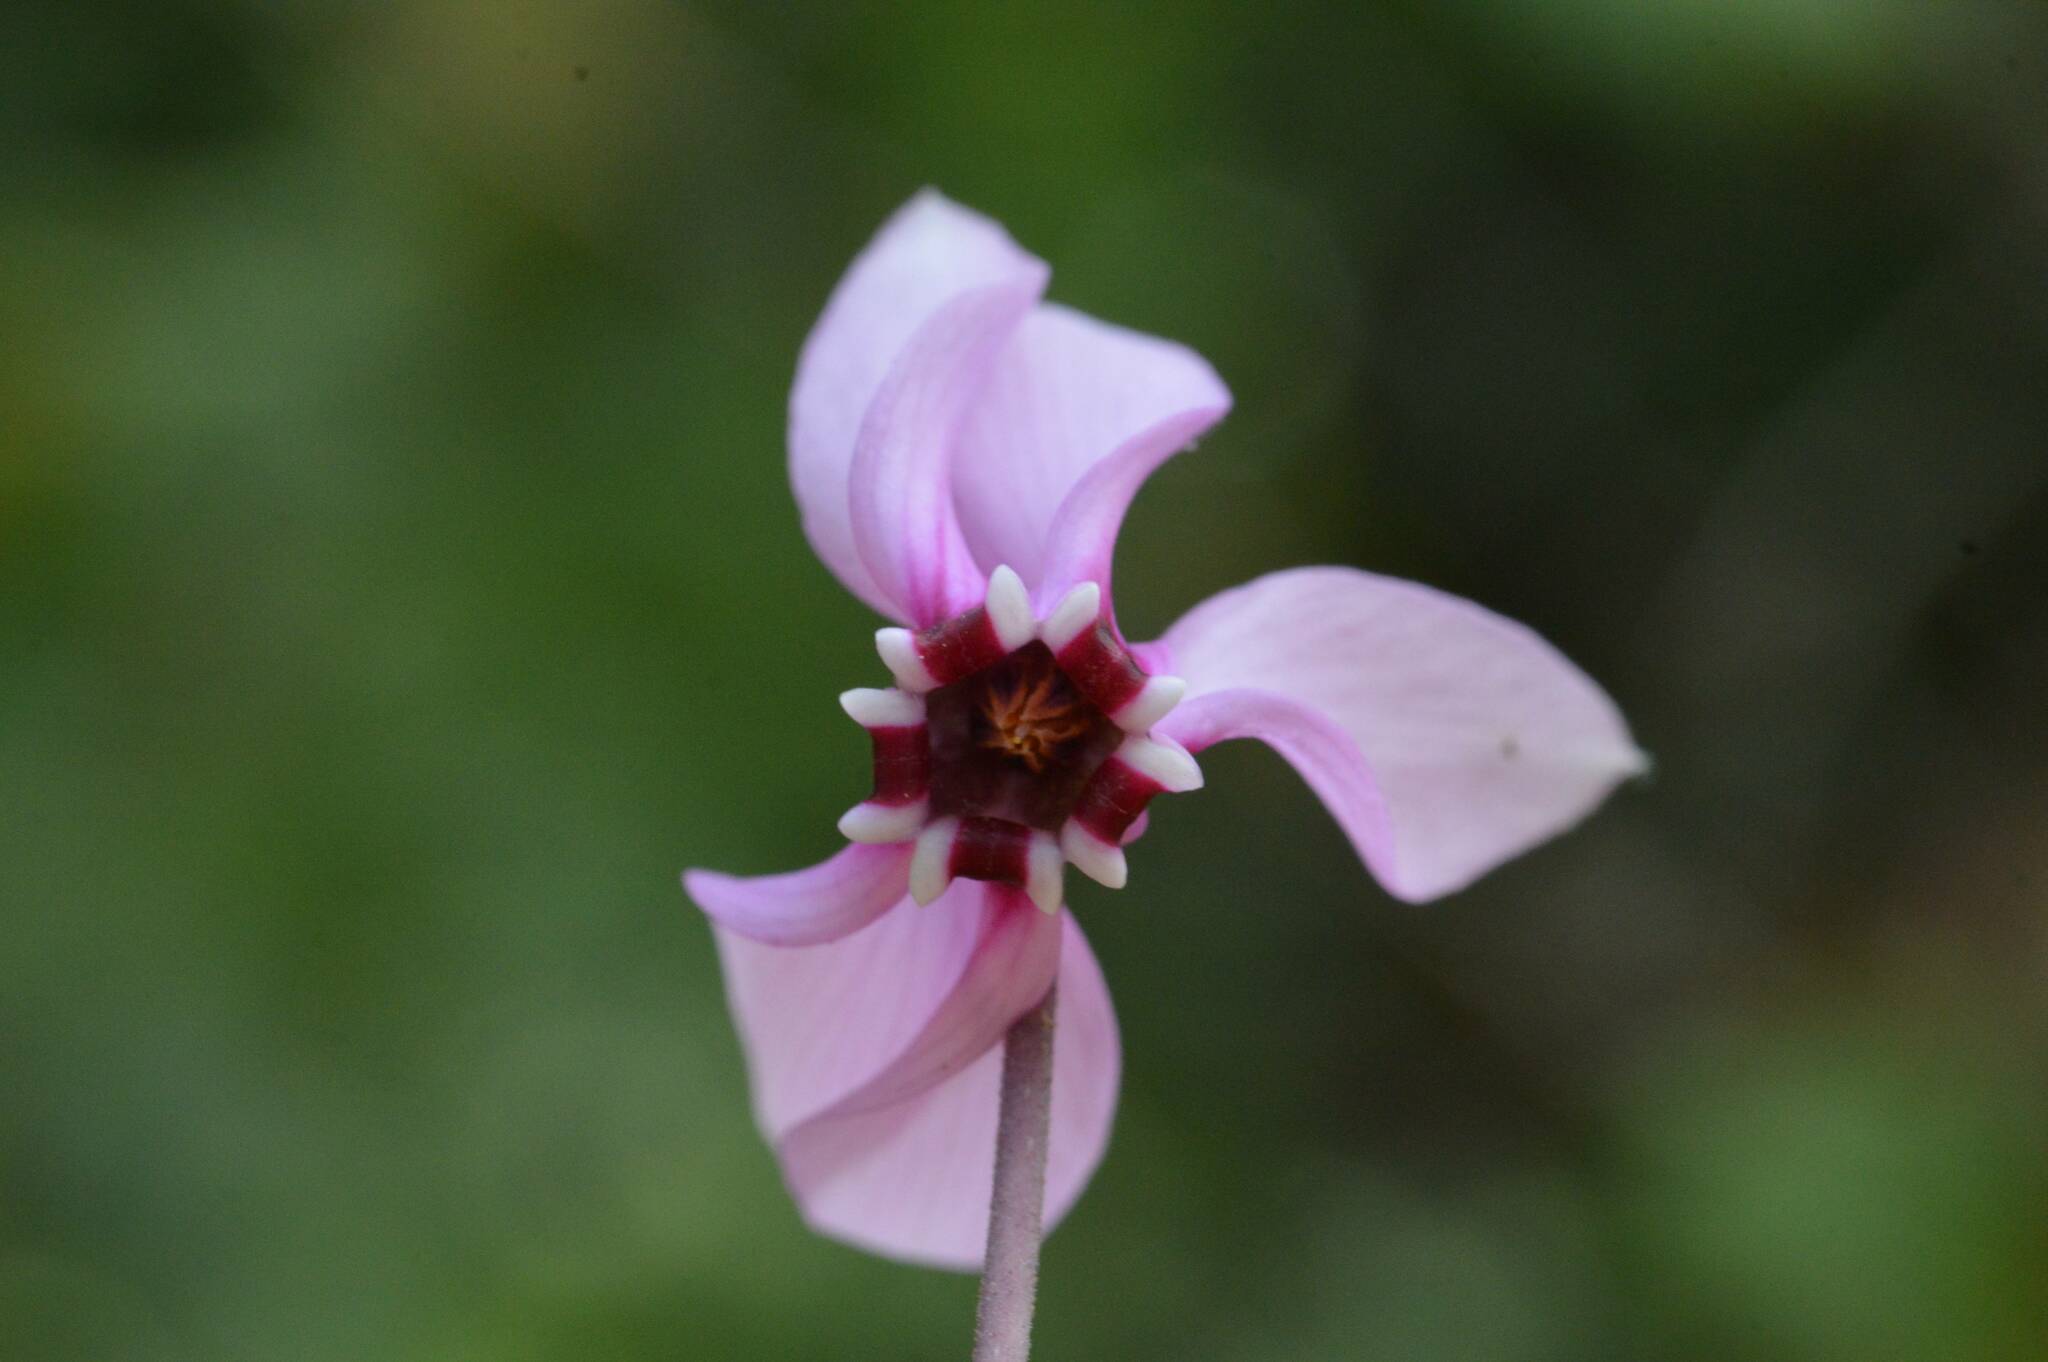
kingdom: Plantae
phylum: Tracheophyta
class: Magnoliopsida
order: Ericales
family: Primulaceae
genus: Cyclamen
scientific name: Cyclamen africanum
